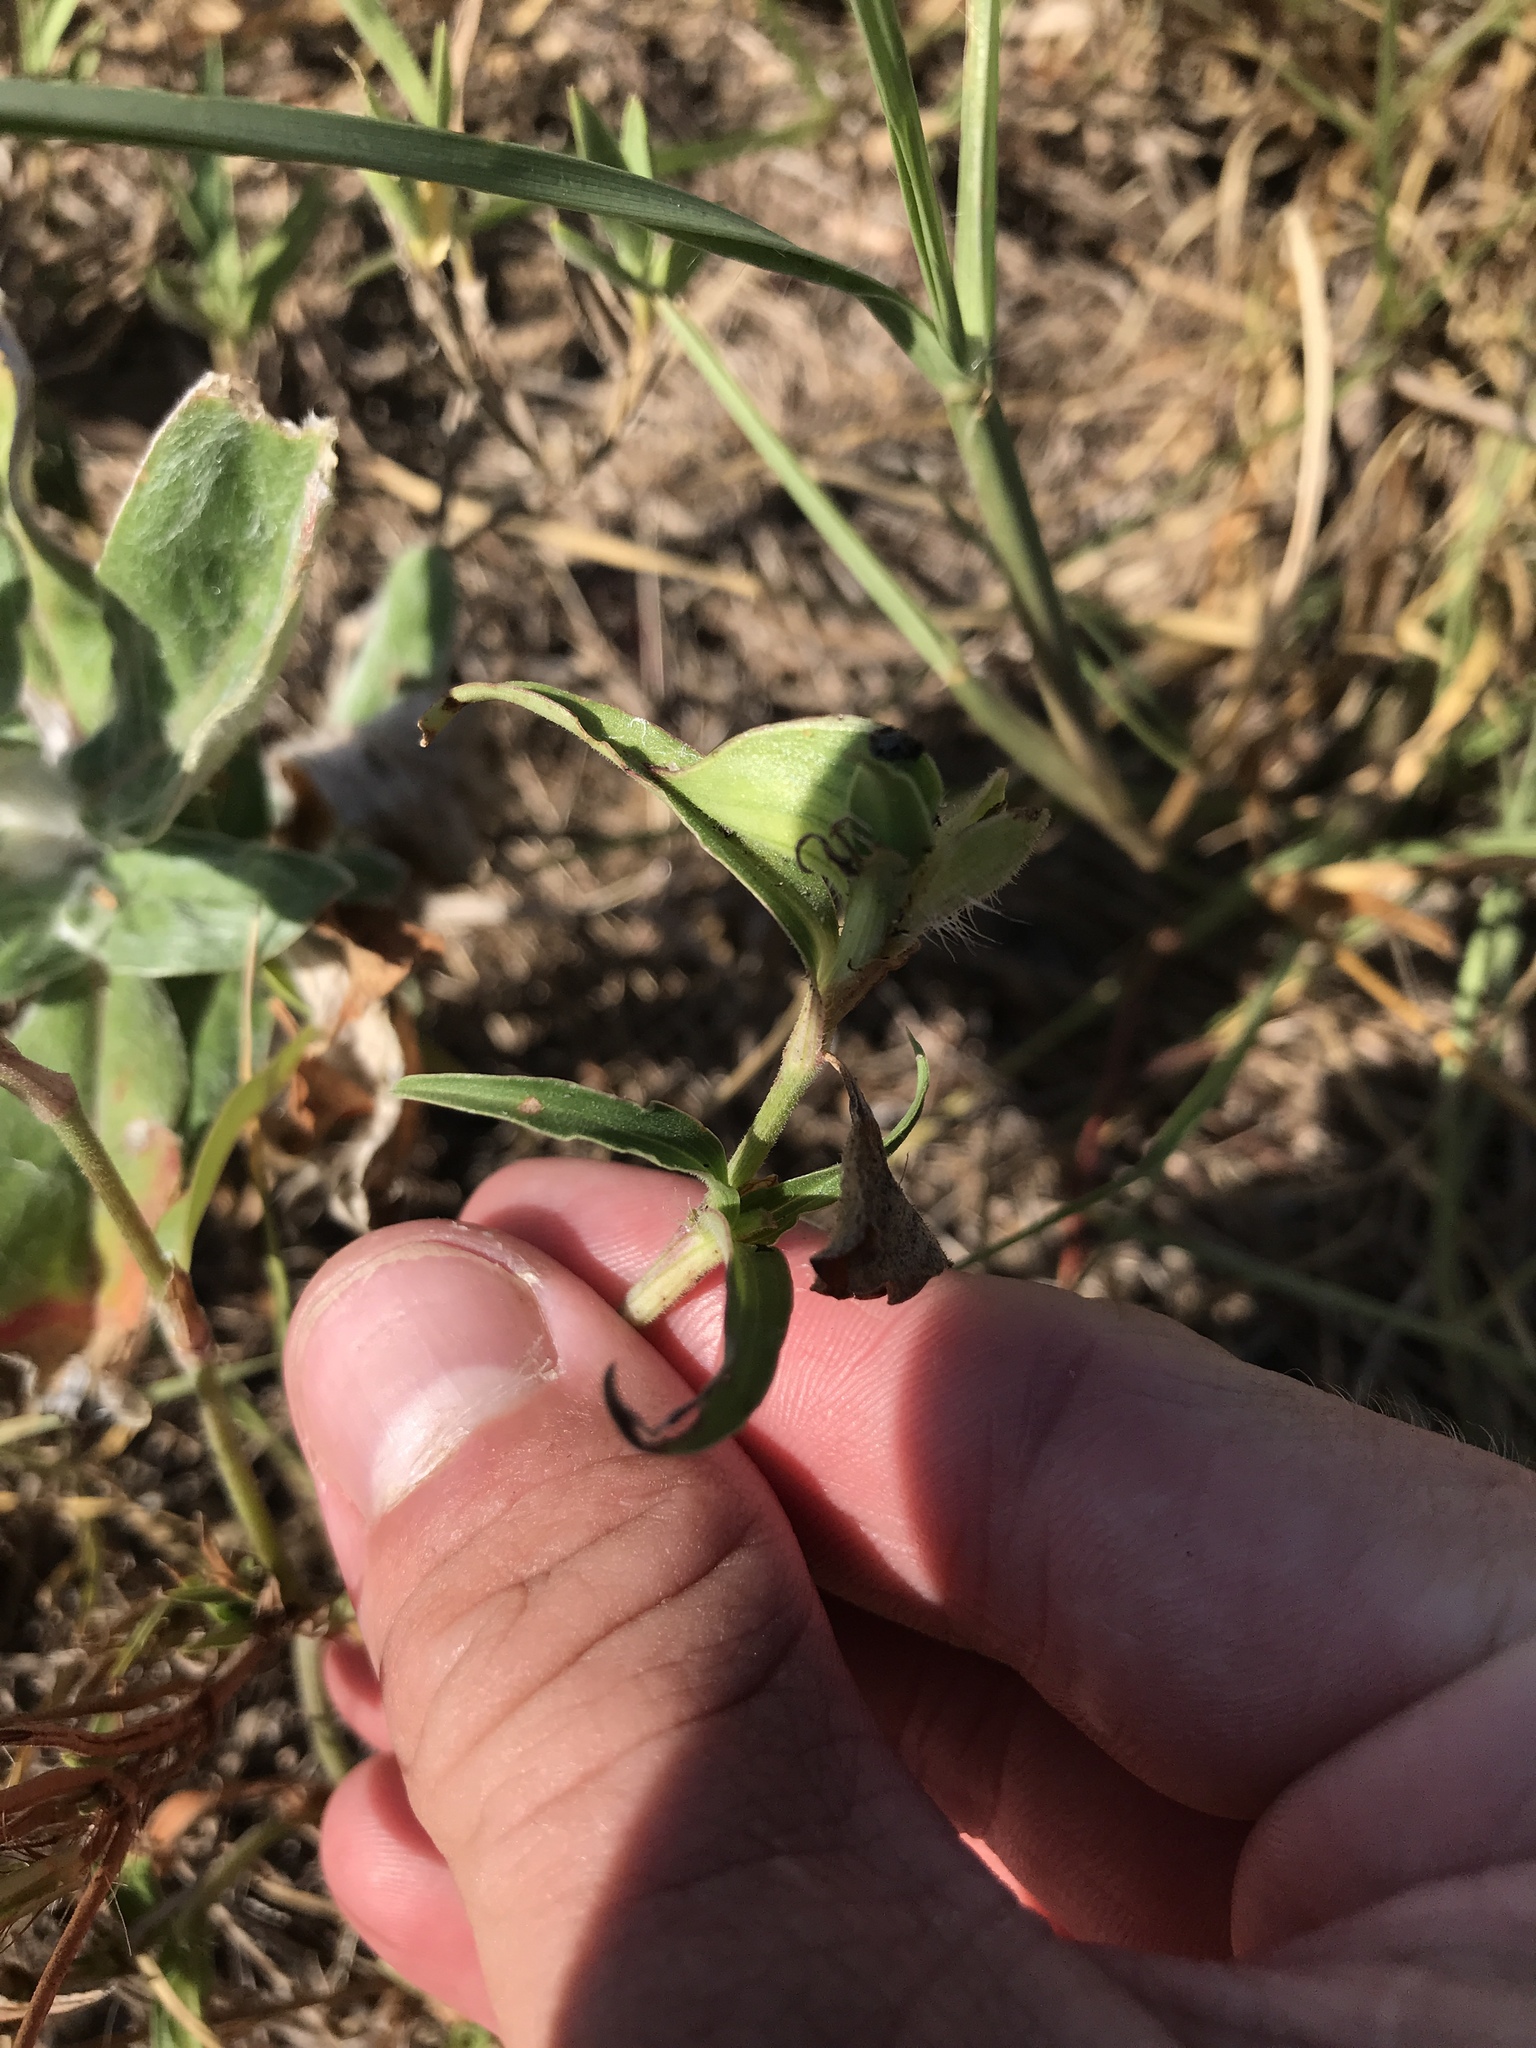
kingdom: Plantae
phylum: Tracheophyta
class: Liliopsida
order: Commelinales
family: Commelinaceae
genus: Commelina
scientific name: Commelina erecta
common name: Blousel blommetjie
